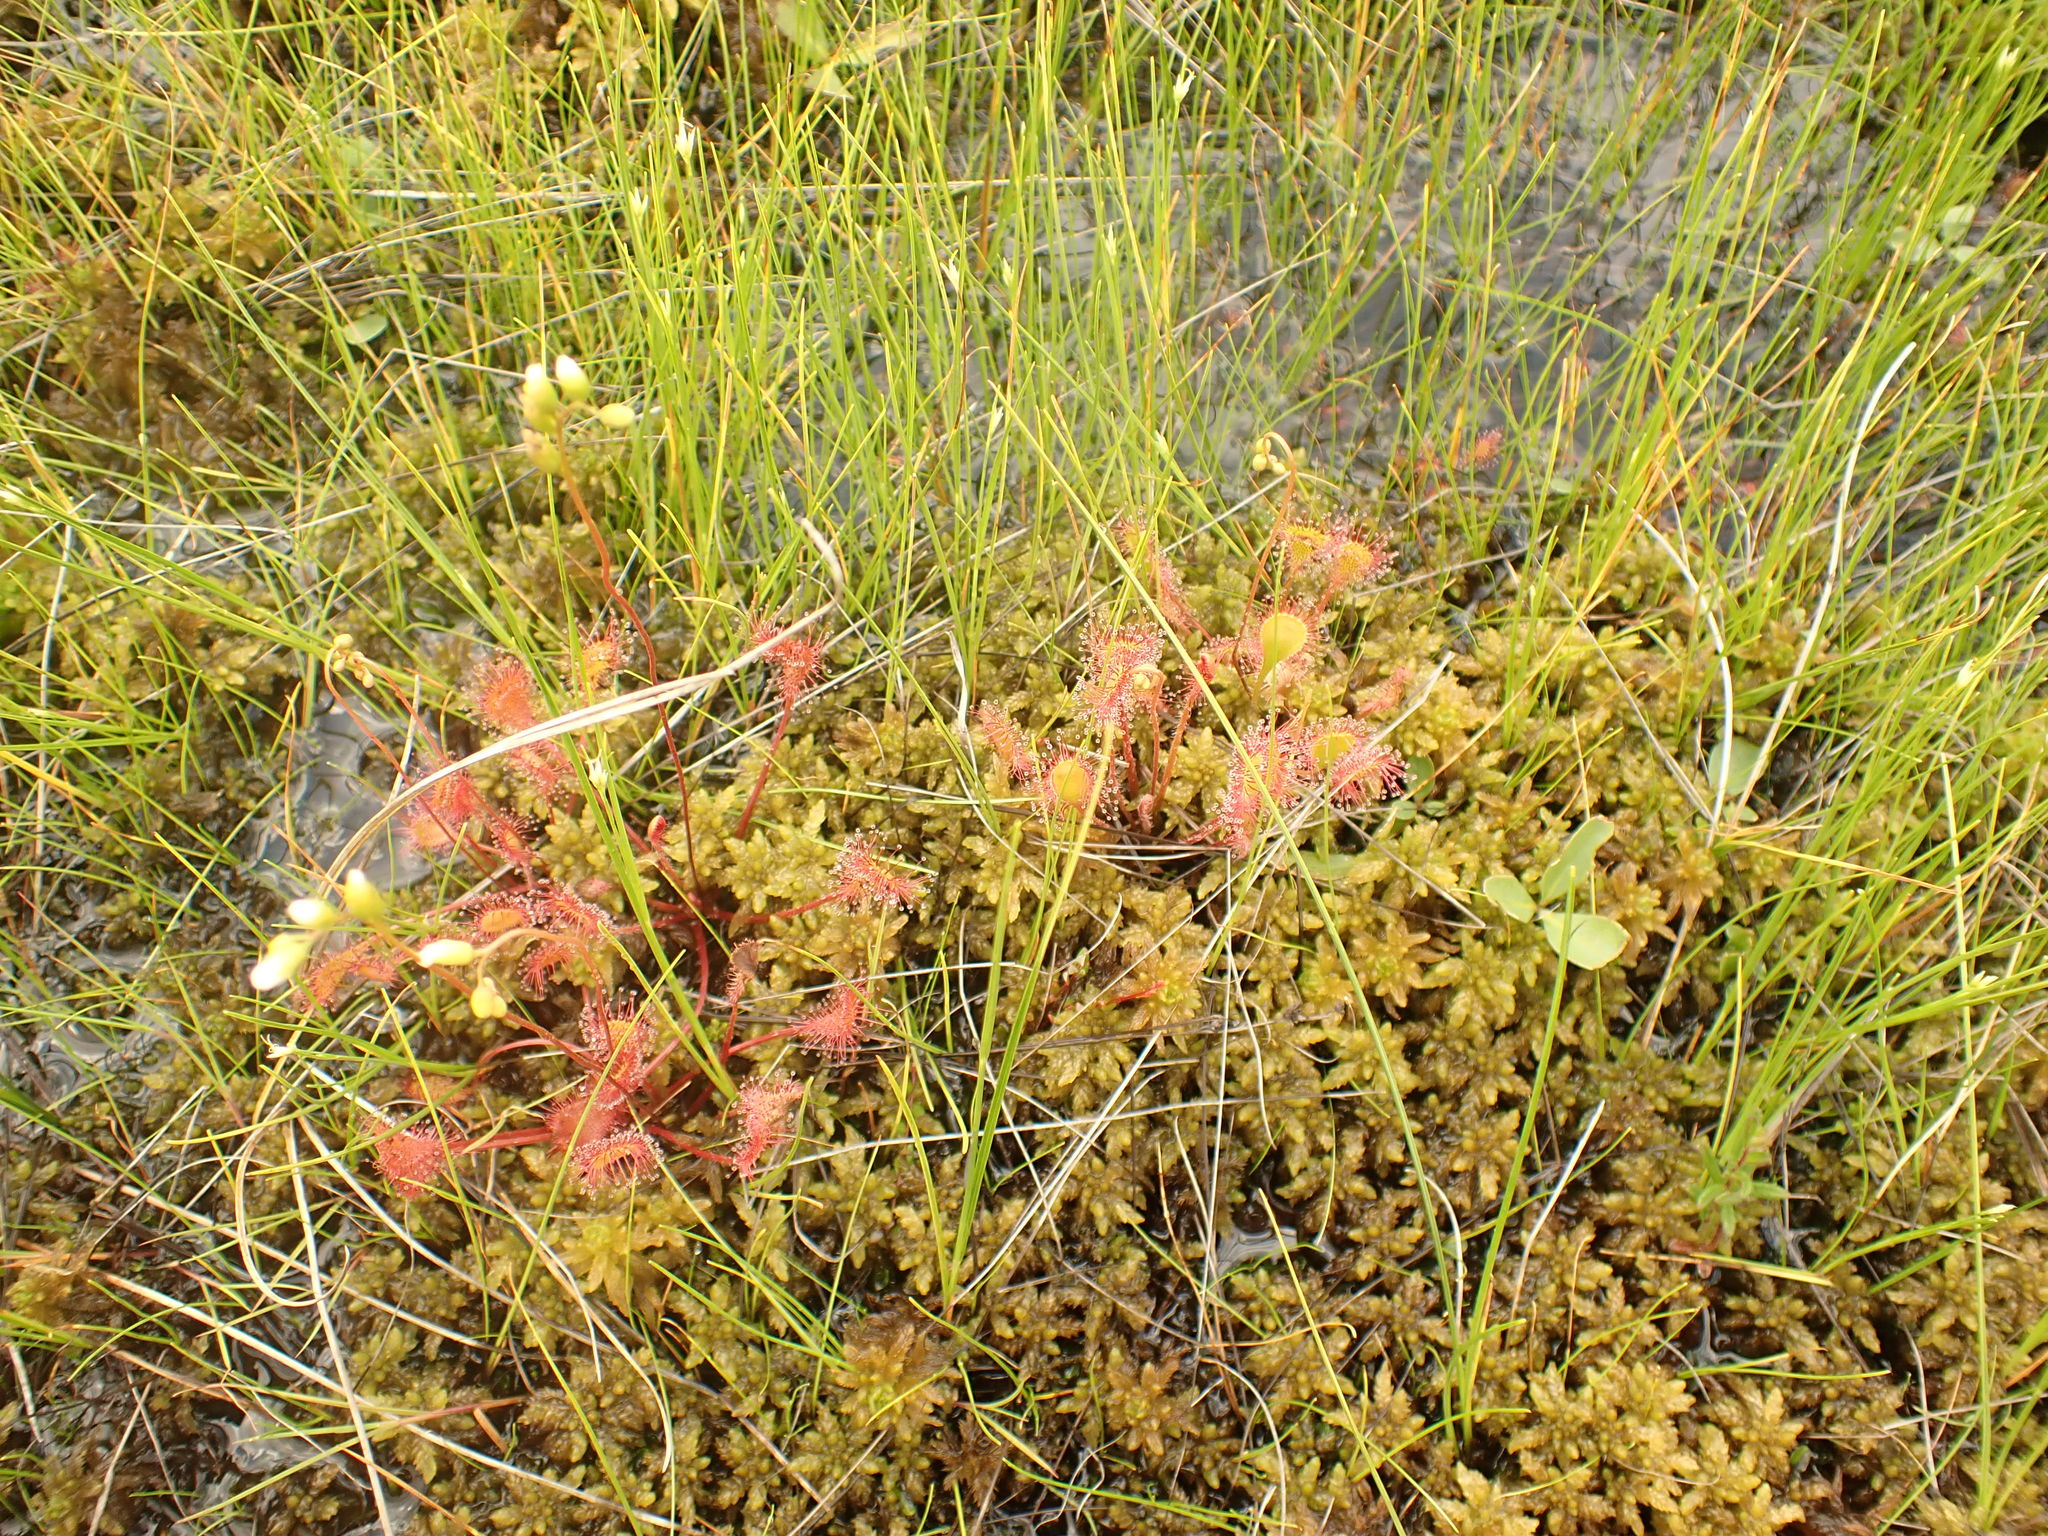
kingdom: Plantae
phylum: Tracheophyta
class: Magnoliopsida
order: Caryophyllales
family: Droseraceae
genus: Drosera
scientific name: Drosera obovata
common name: Ivan's paddle
